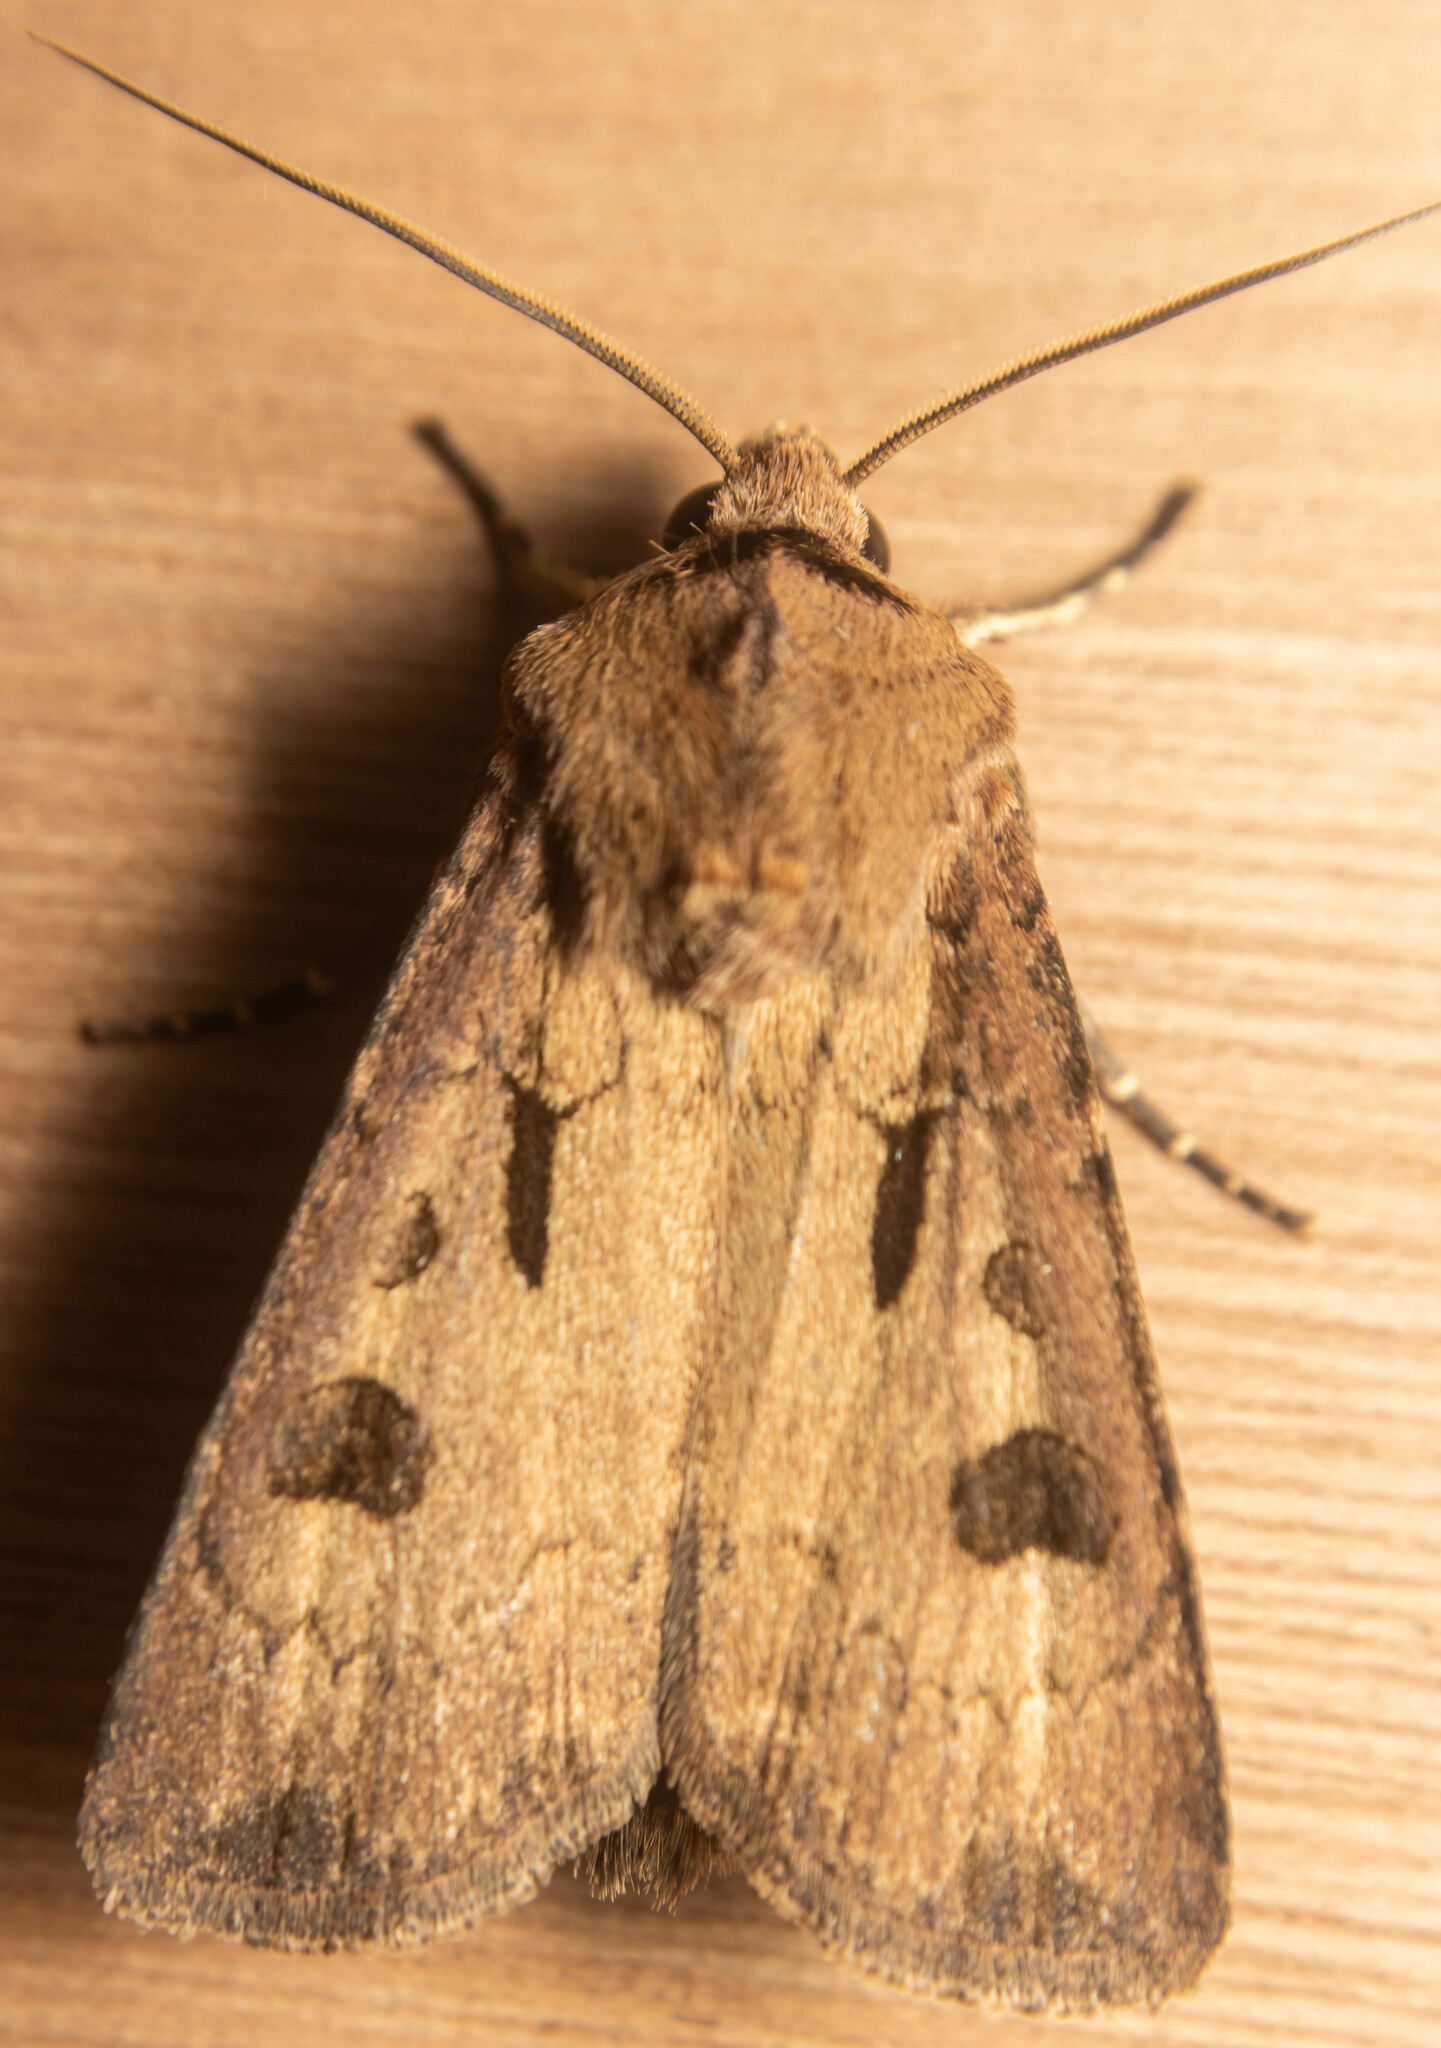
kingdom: Animalia
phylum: Arthropoda
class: Insecta
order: Lepidoptera
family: Noctuidae
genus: Agrotis
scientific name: Agrotis exclamationis
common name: Heart and dart
